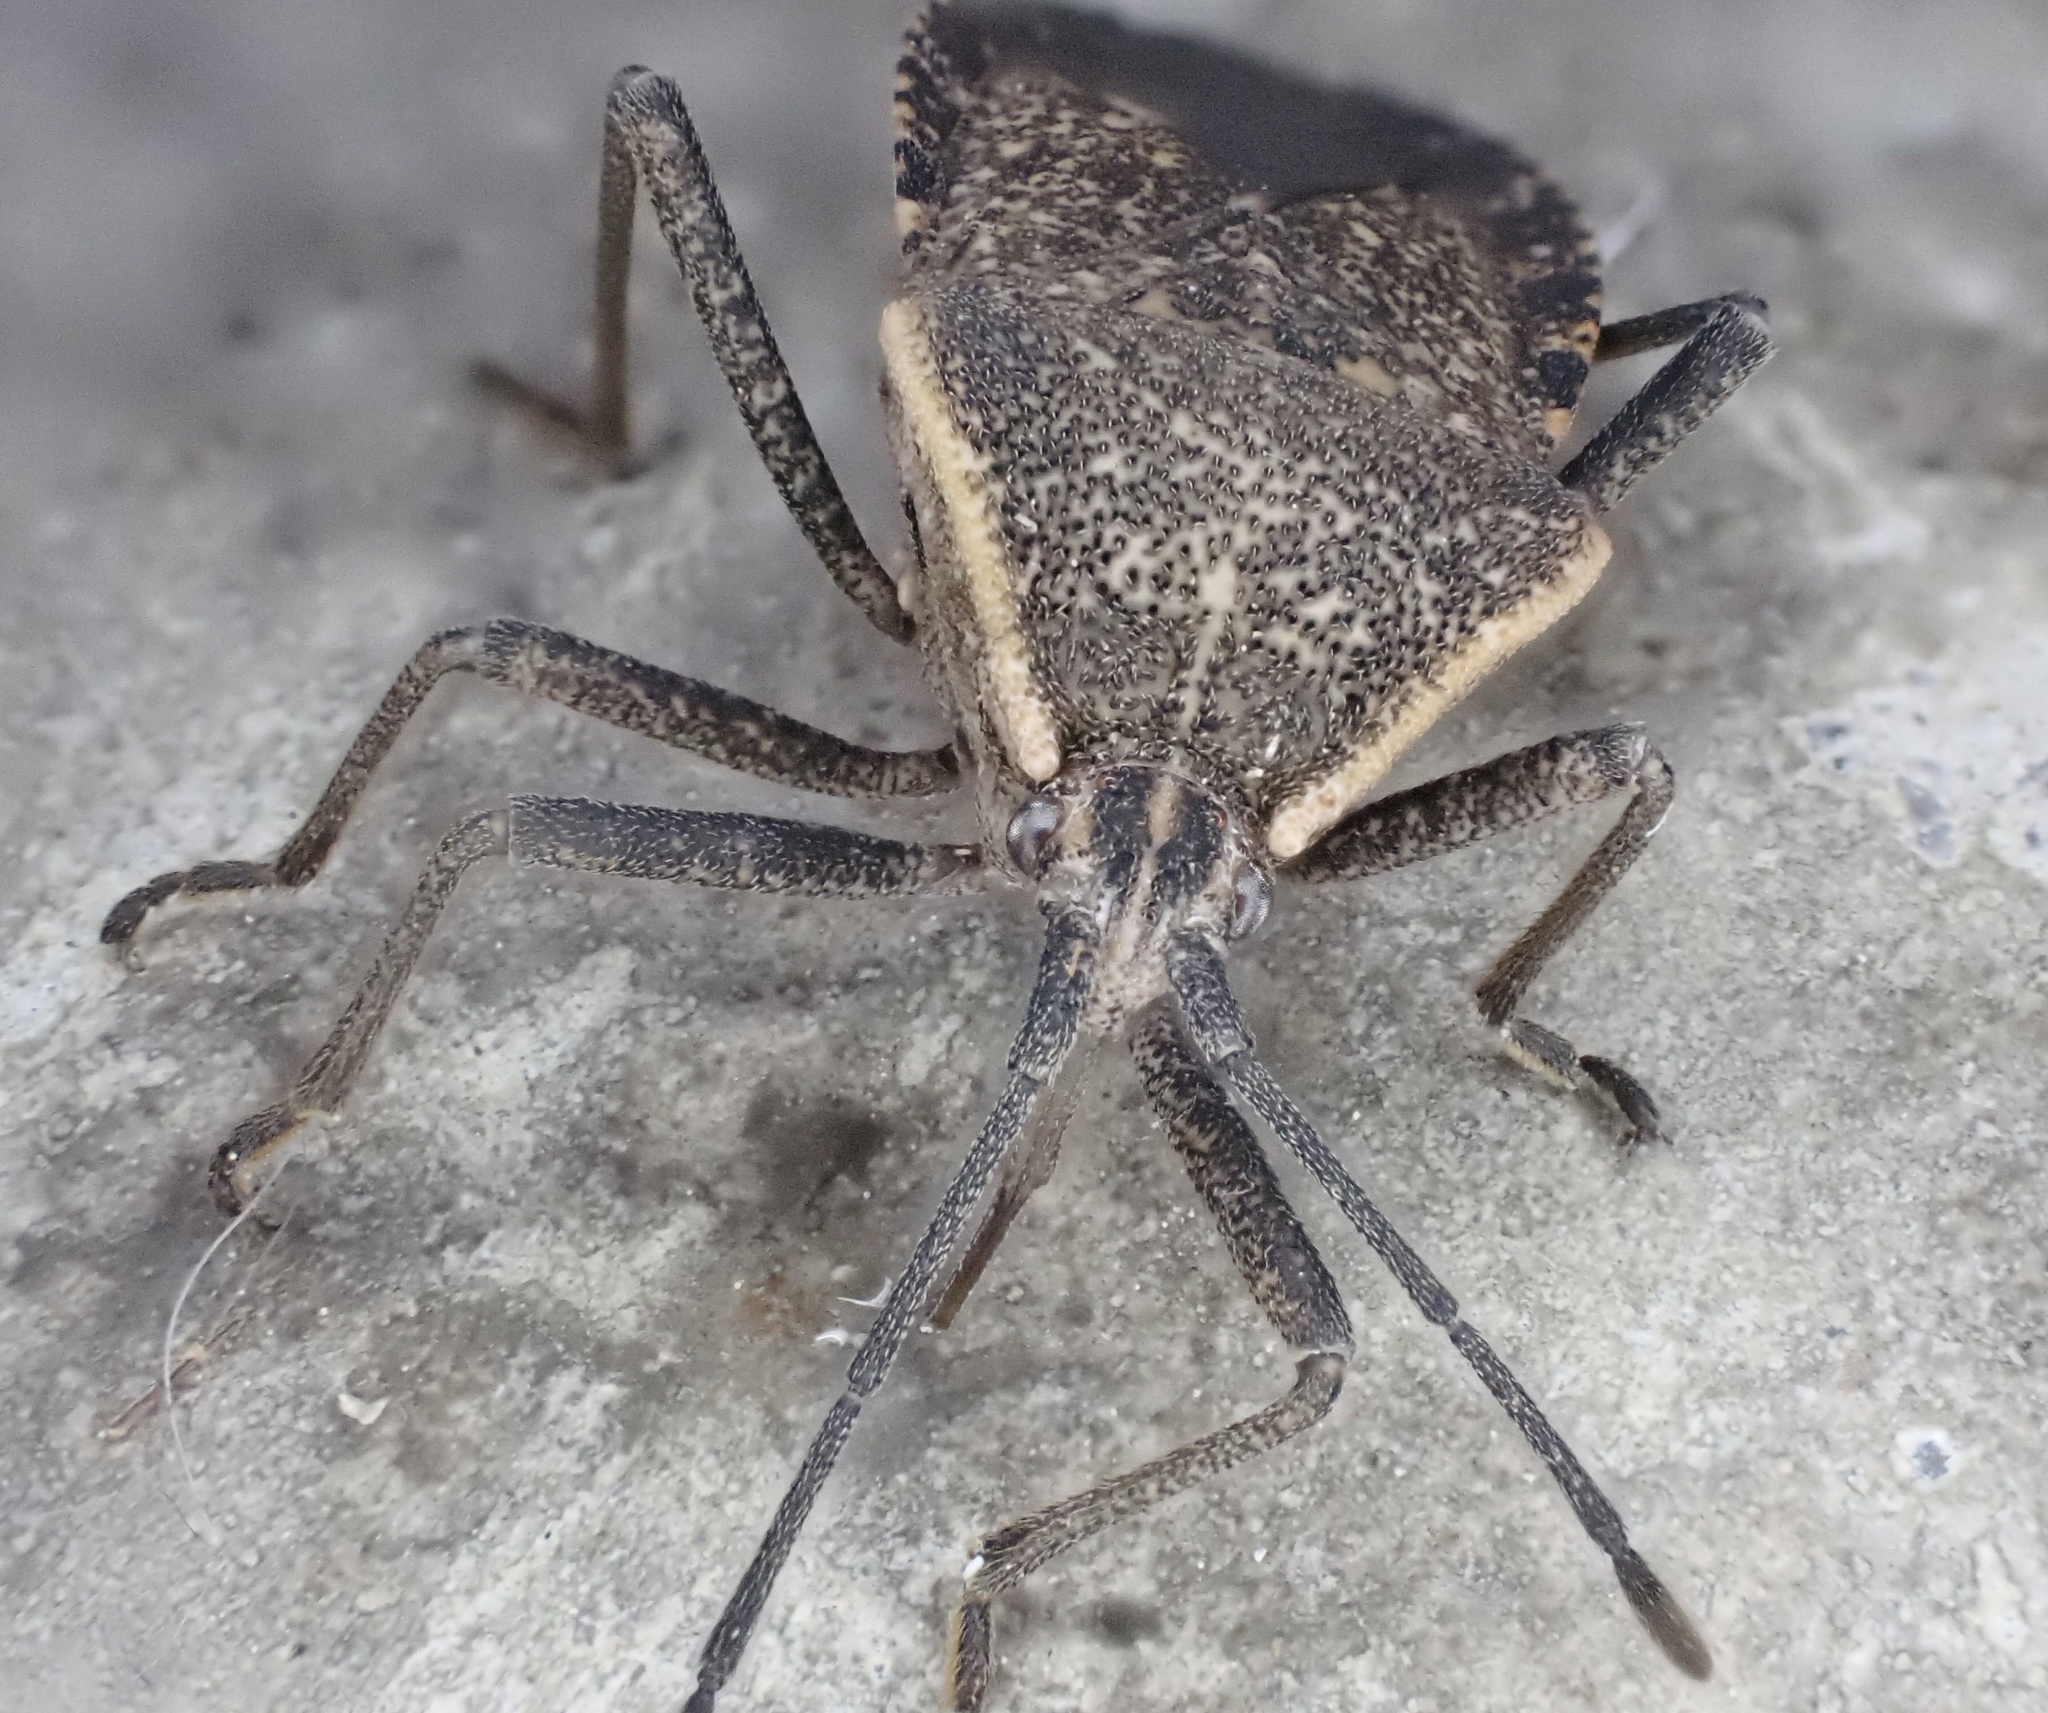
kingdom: Animalia
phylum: Arthropoda
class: Insecta
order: Hemiptera
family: Coreidae
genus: Anasa
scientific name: Anasa tristis
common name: Squash bug
